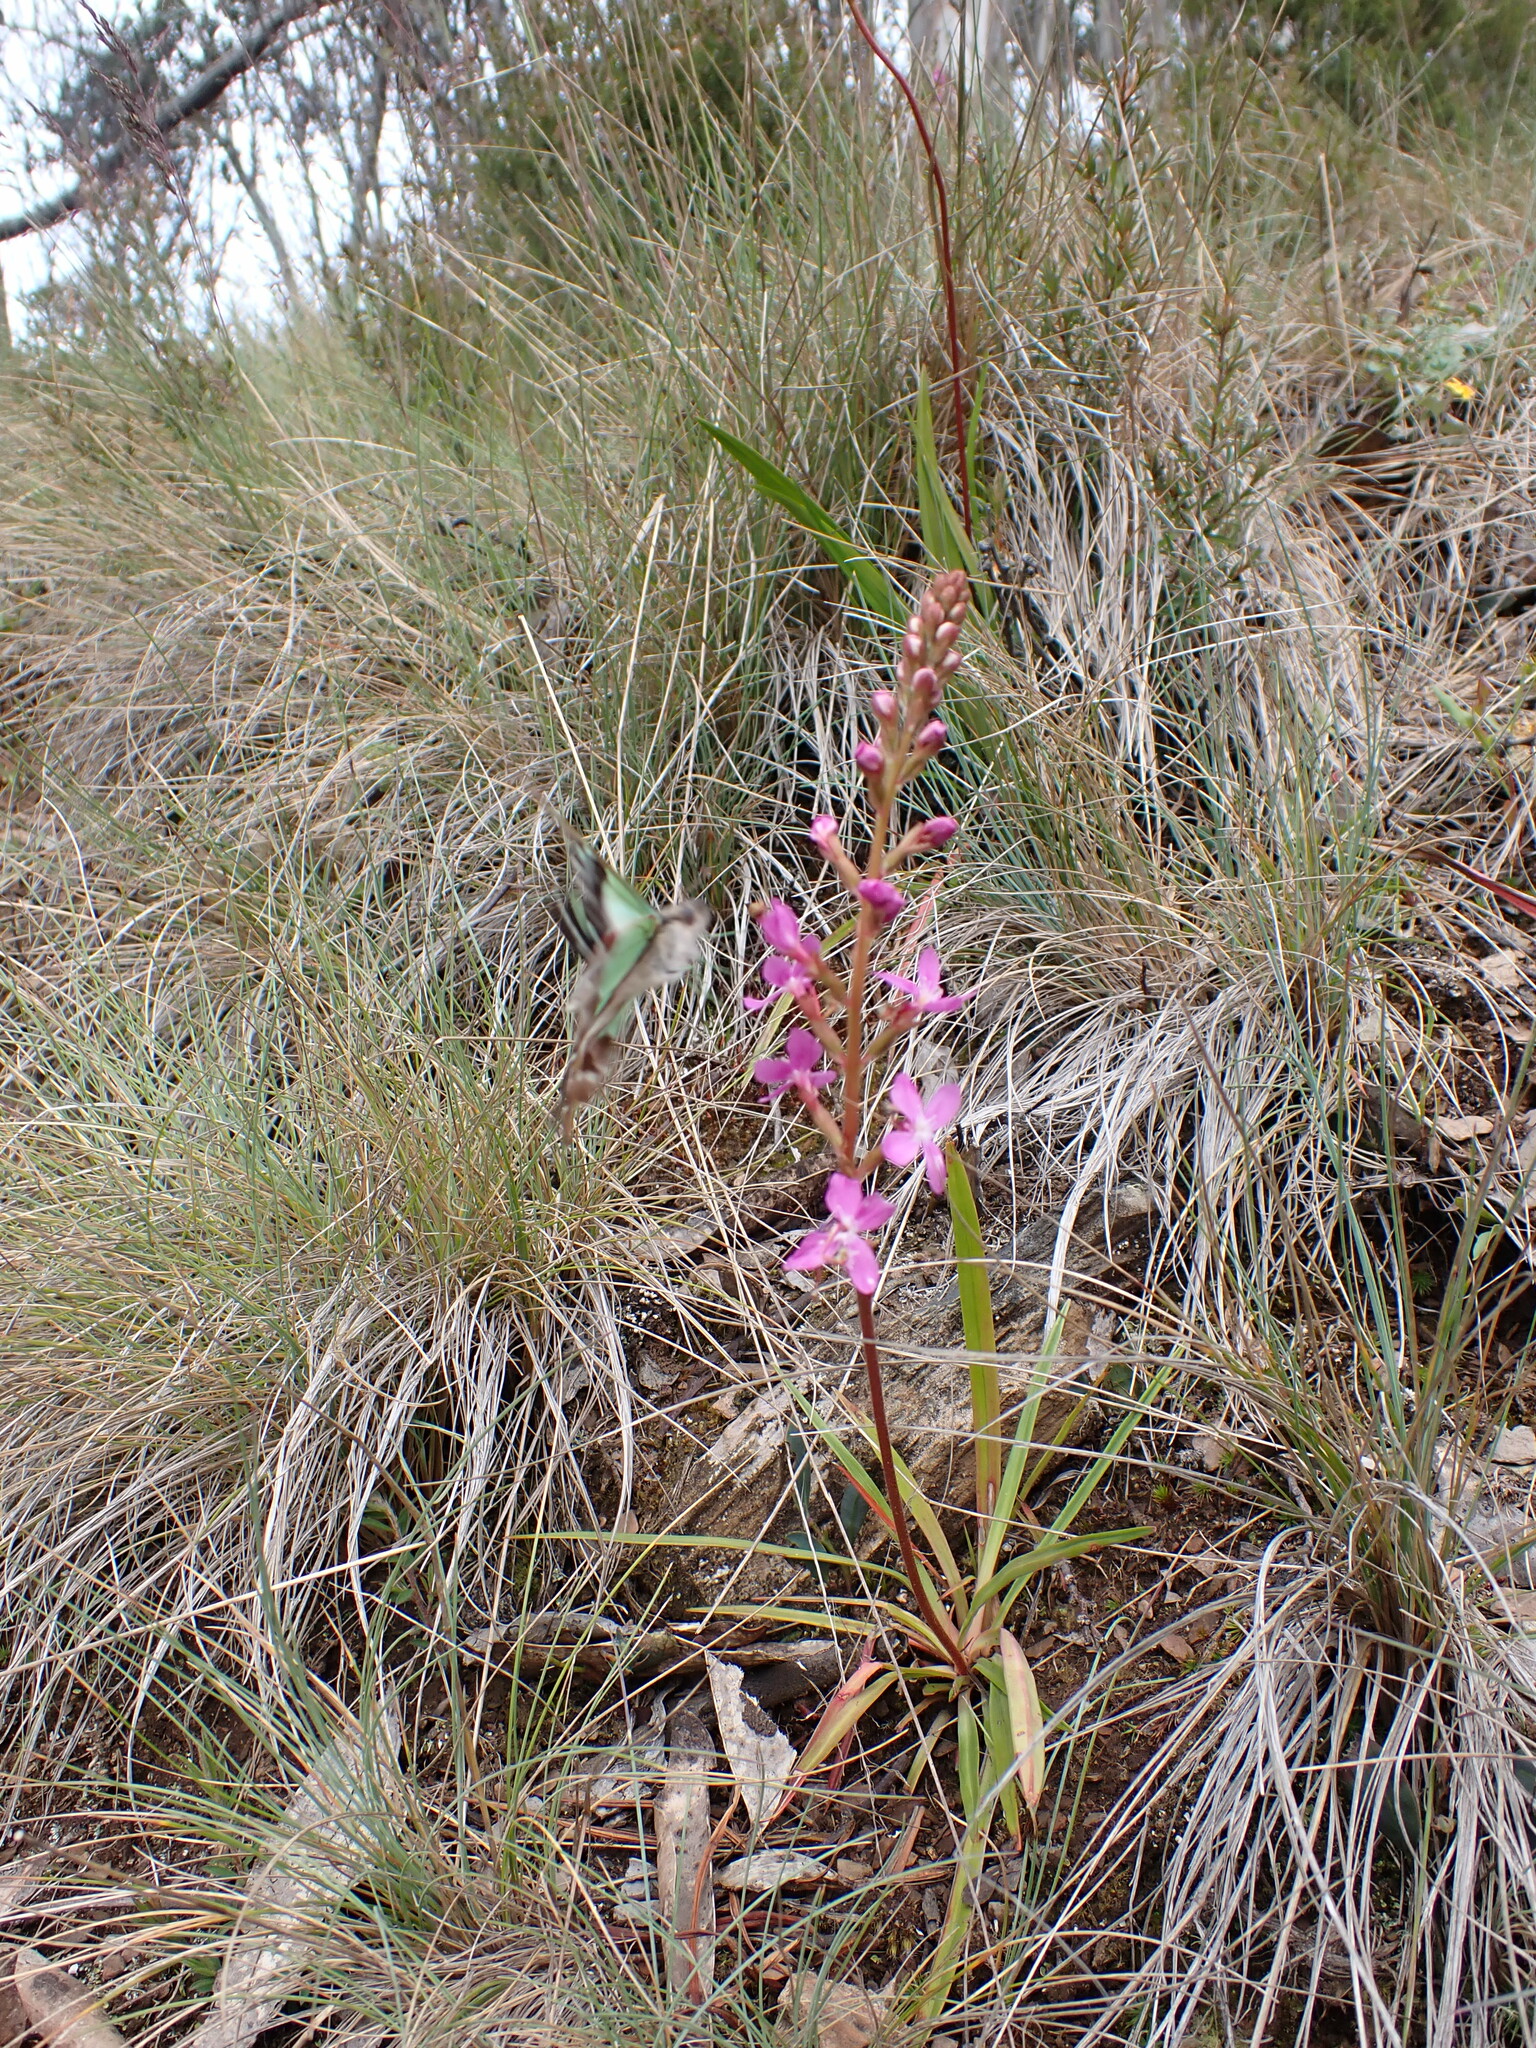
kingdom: Plantae
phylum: Tracheophyta
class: Magnoliopsida
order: Asterales
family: Stylidiaceae
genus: Stylidium
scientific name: Stylidium armeria
